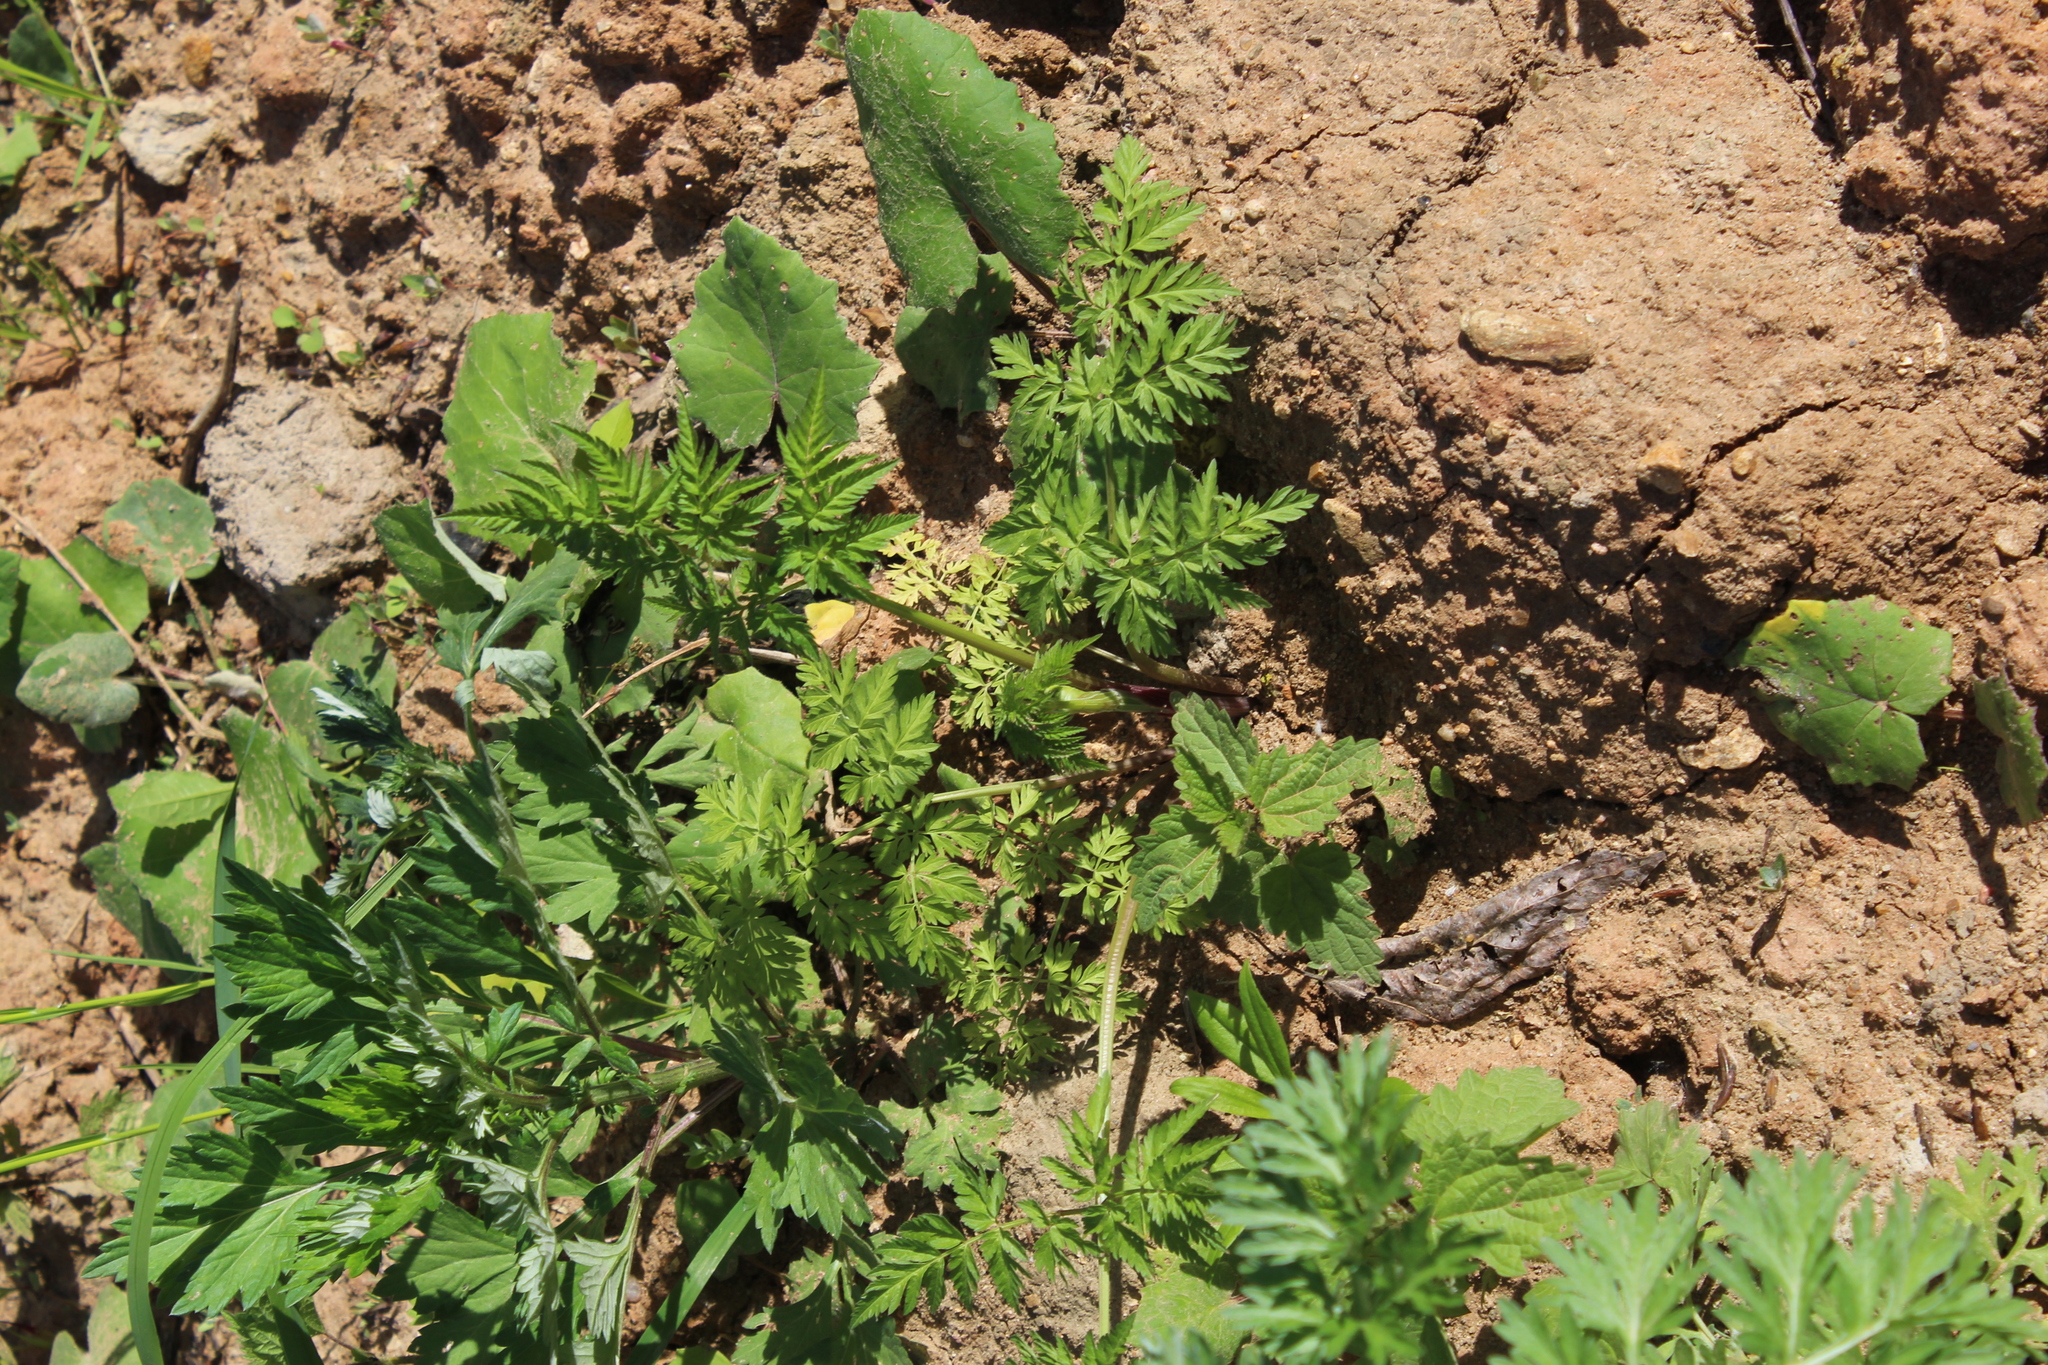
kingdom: Plantae
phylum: Tracheophyta
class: Magnoliopsida
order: Apiales
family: Apiaceae
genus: Anthriscus
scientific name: Anthriscus sylvestris
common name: Cow parsley
